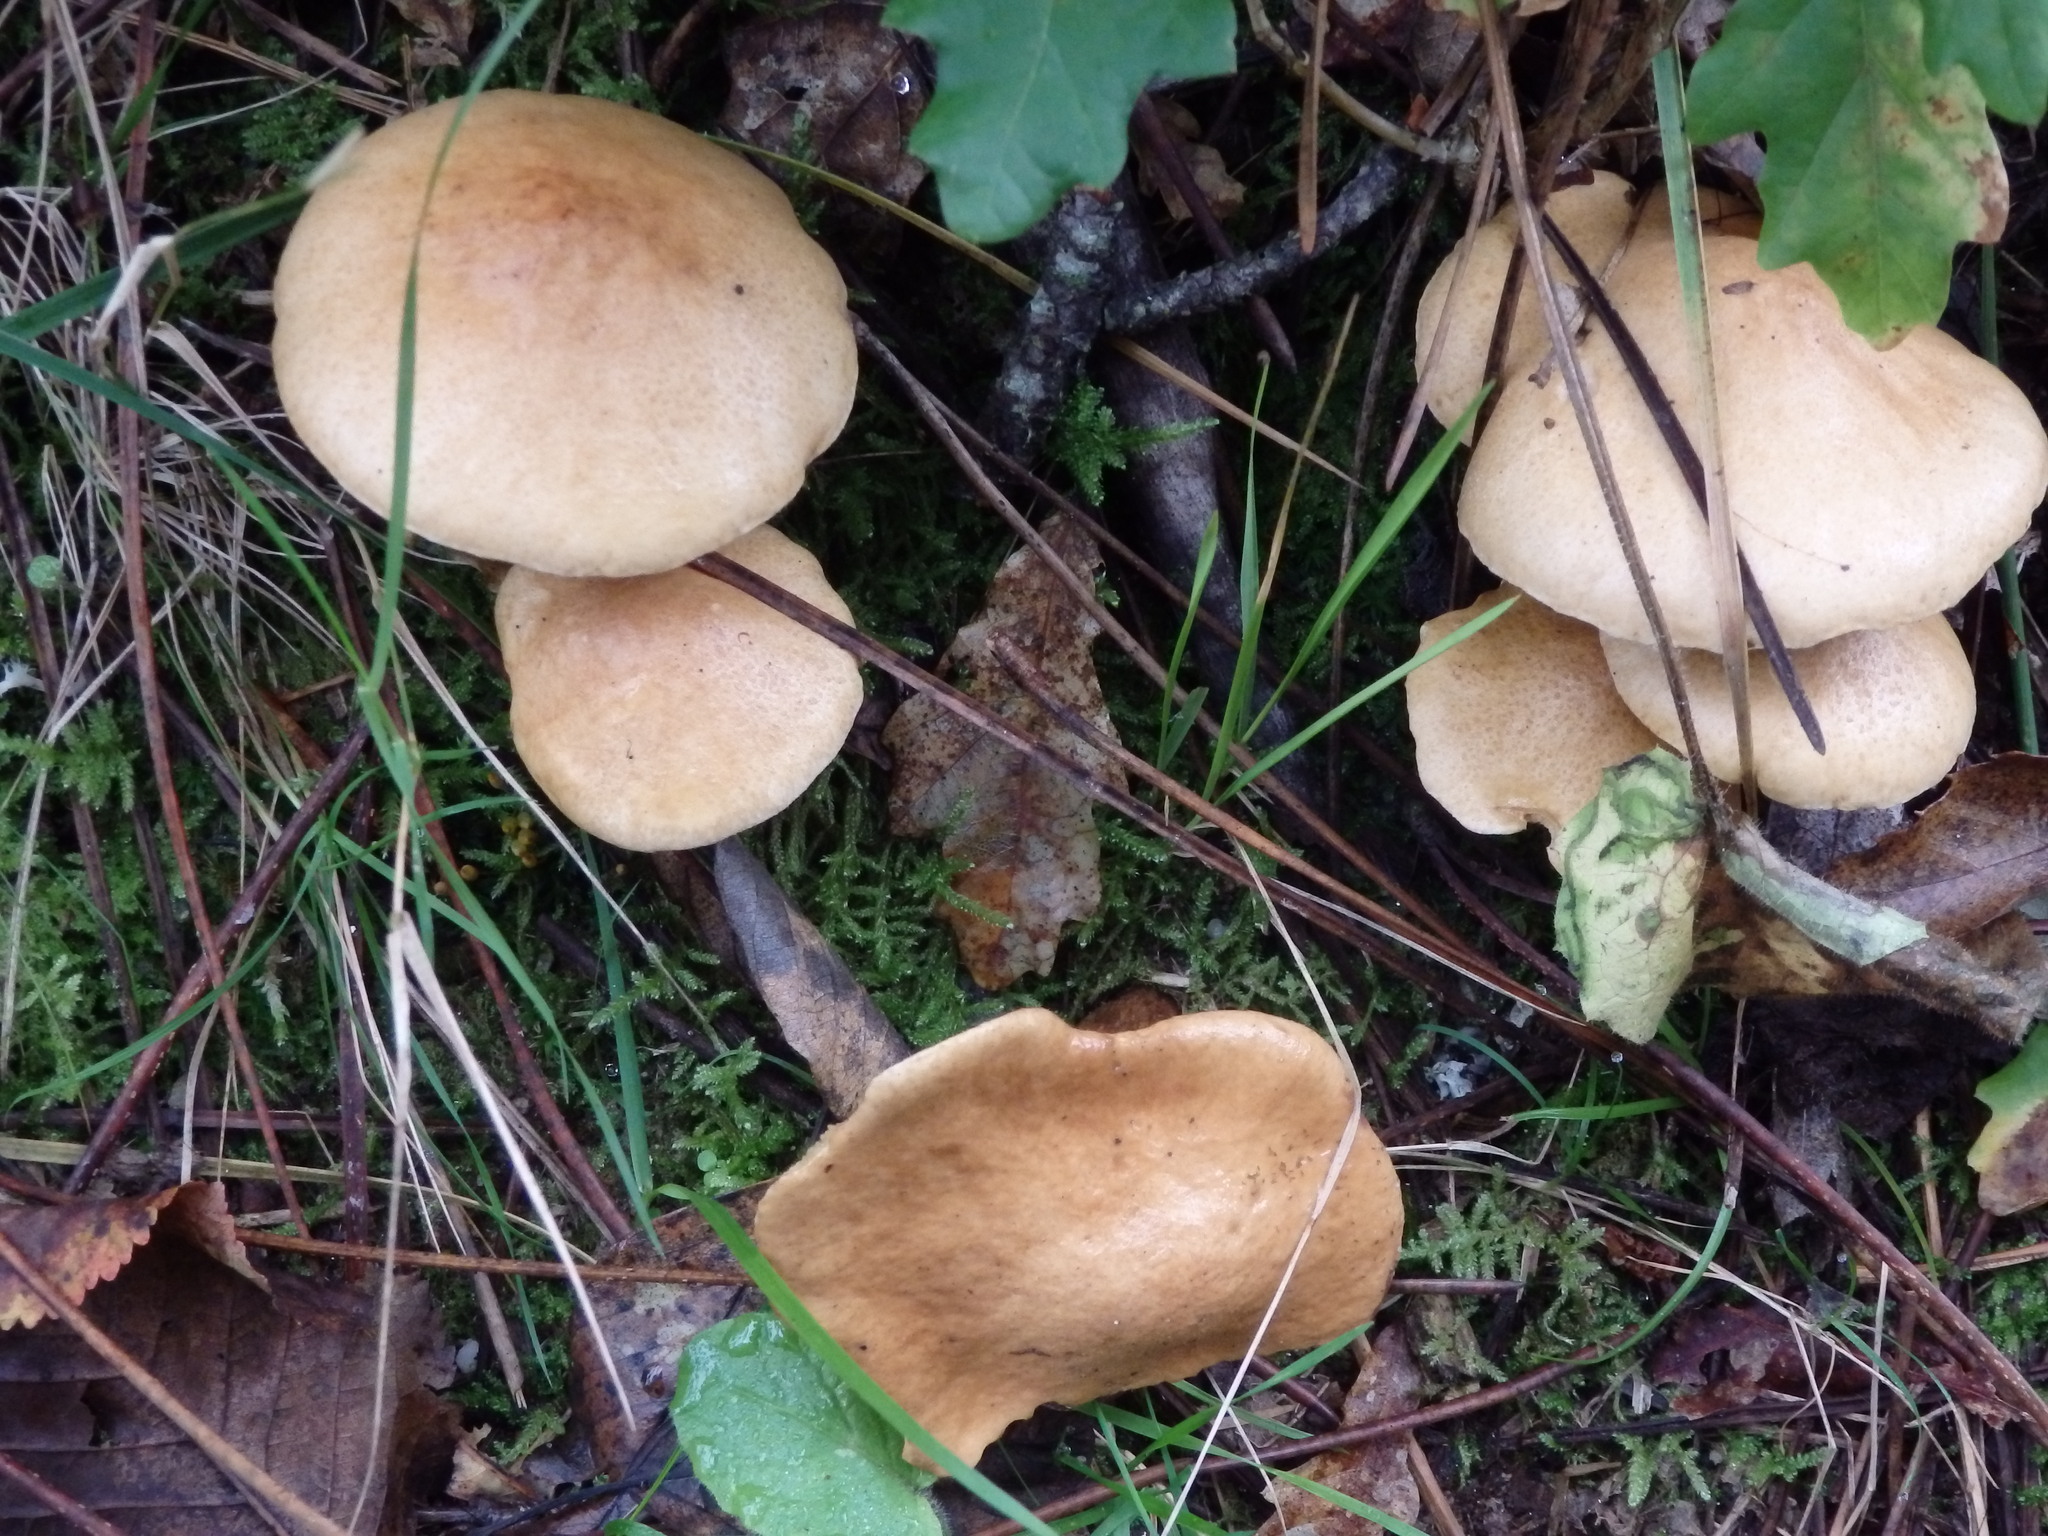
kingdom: Fungi
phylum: Basidiomycota
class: Agaricomycetes
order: Boletales
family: Suillaceae
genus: Suillus
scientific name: Suillus bovinus
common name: Bovine bolete
